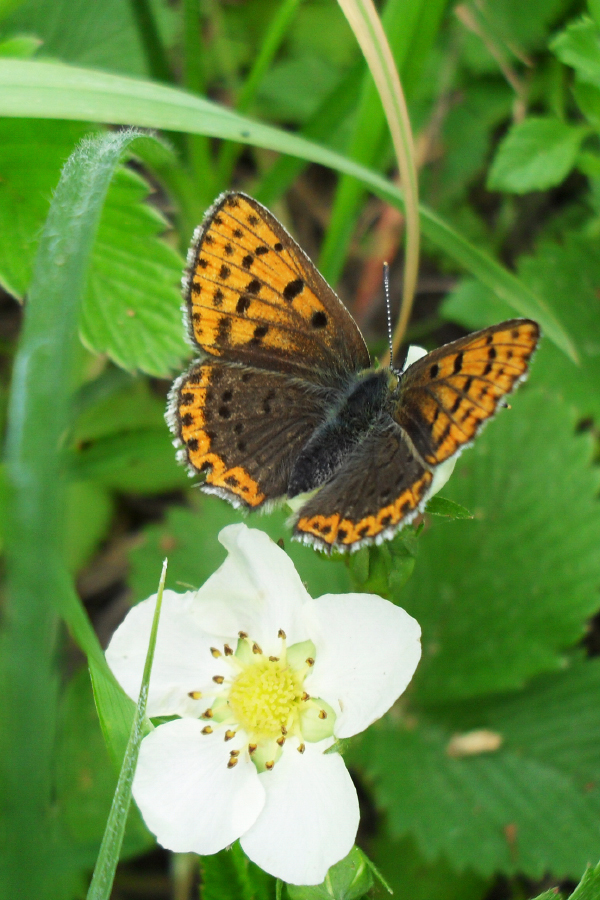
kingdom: Animalia
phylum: Arthropoda
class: Insecta
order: Lepidoptera
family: Lycaenidae
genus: Loweia
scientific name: Loweia tityrus
